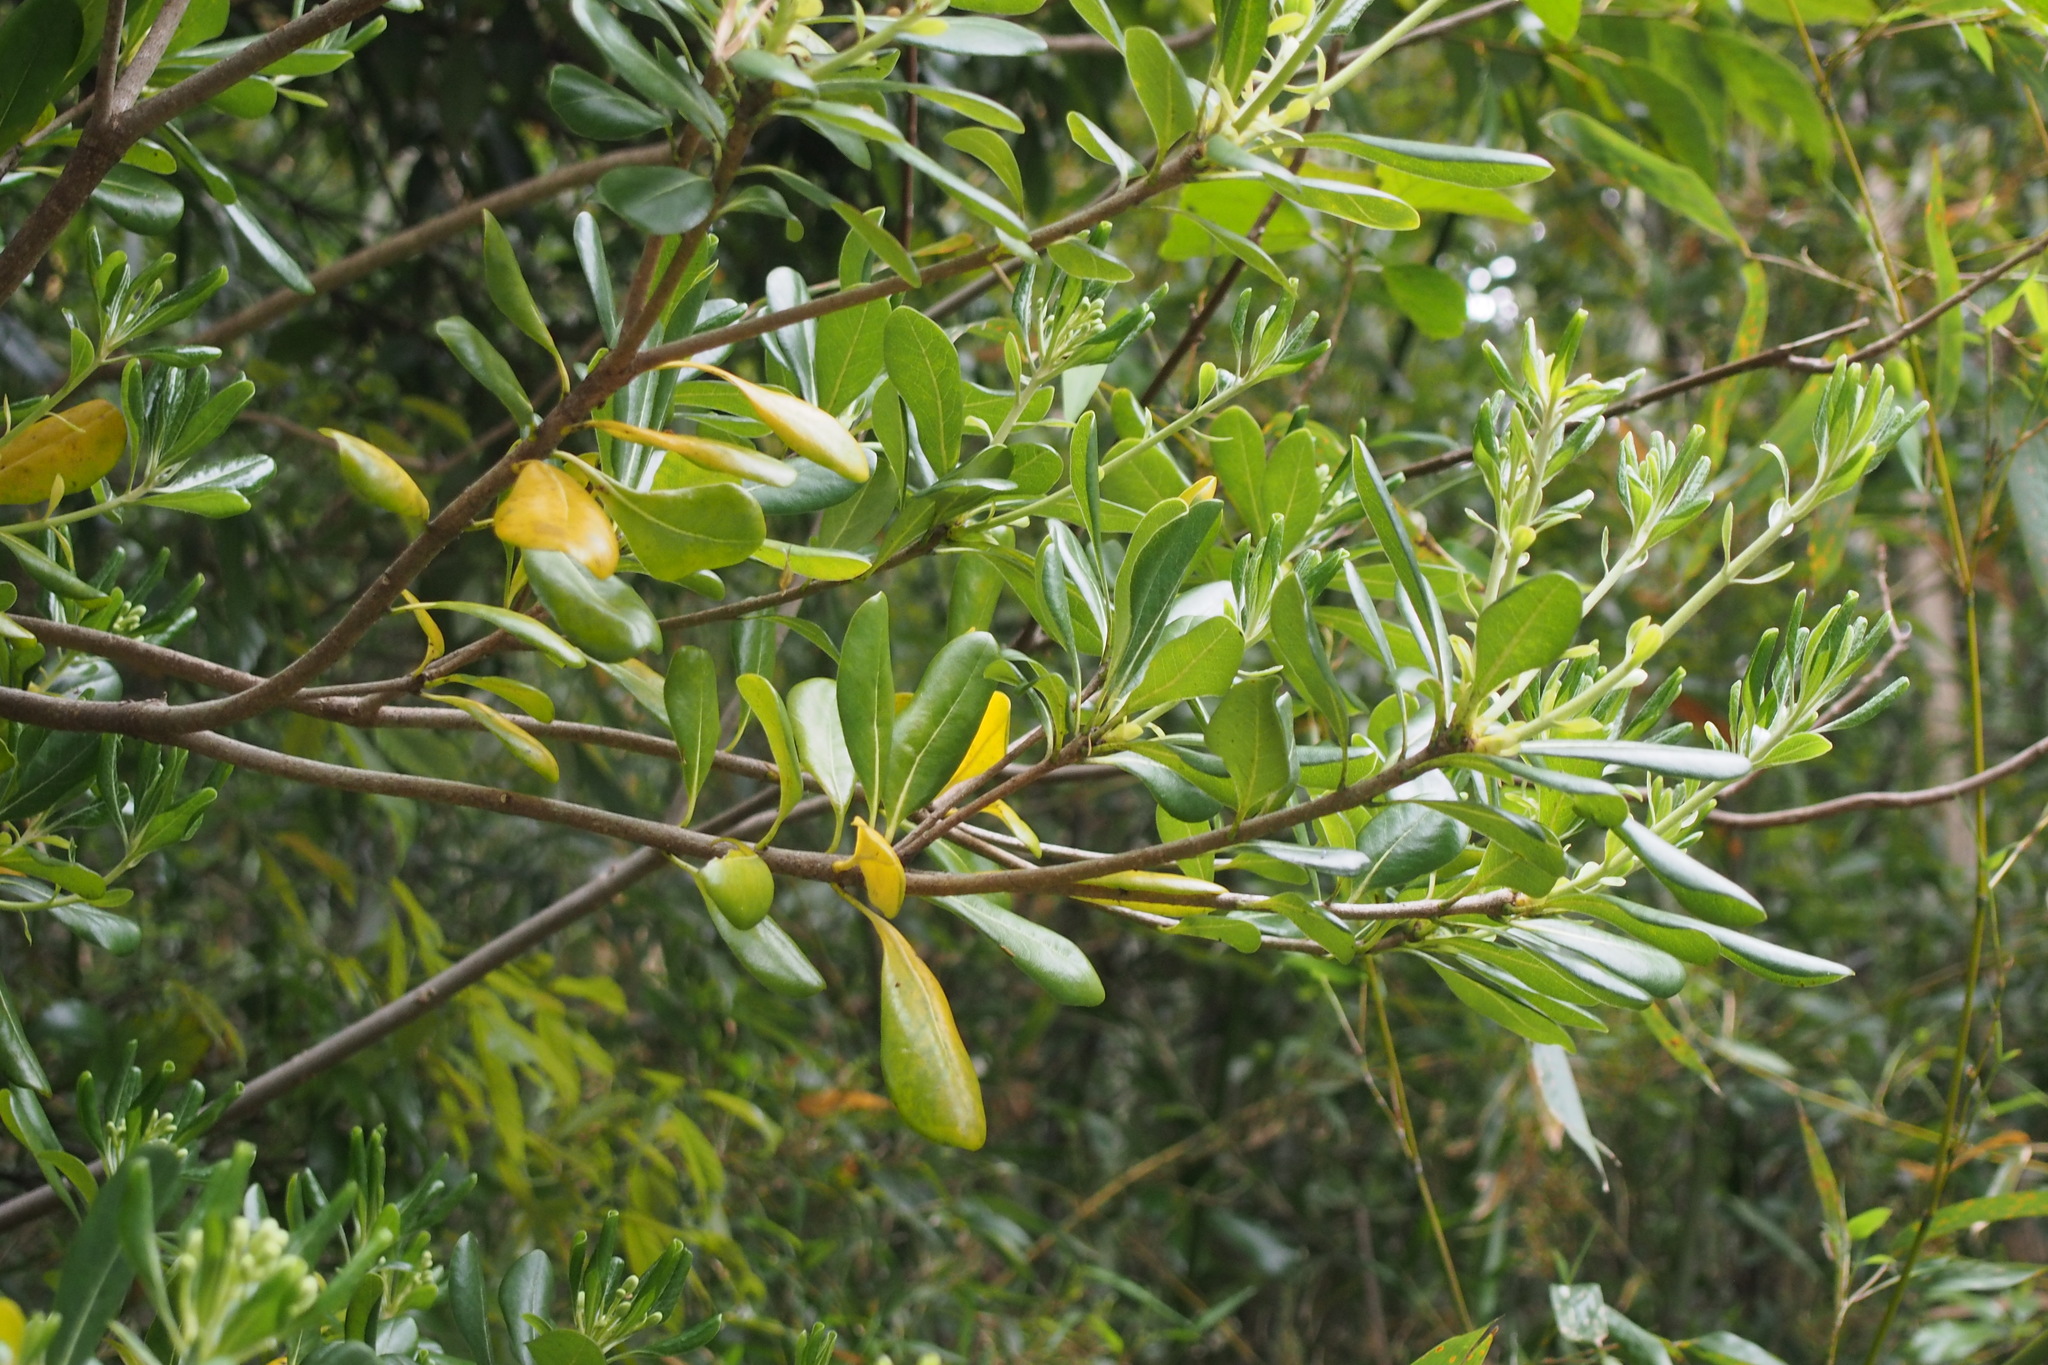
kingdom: Plantae
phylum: Tracheophyta
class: Magnoliopsida
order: Apiales
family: Pittosporaceae
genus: Pittosporum
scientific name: Pittosporum tobira
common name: Japanese cheesewood
